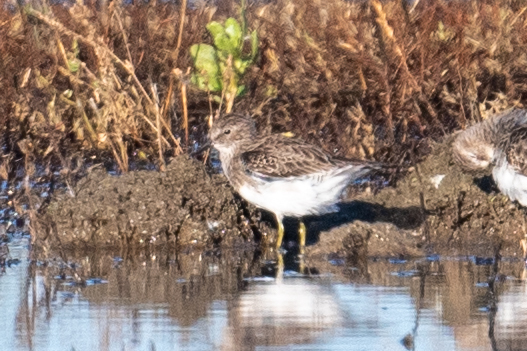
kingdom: Animalia
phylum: Chordata
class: Aves
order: Charadriiformes
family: Scolopacidae
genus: Calidris
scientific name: Calidris minutilla
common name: Least sandpiper
